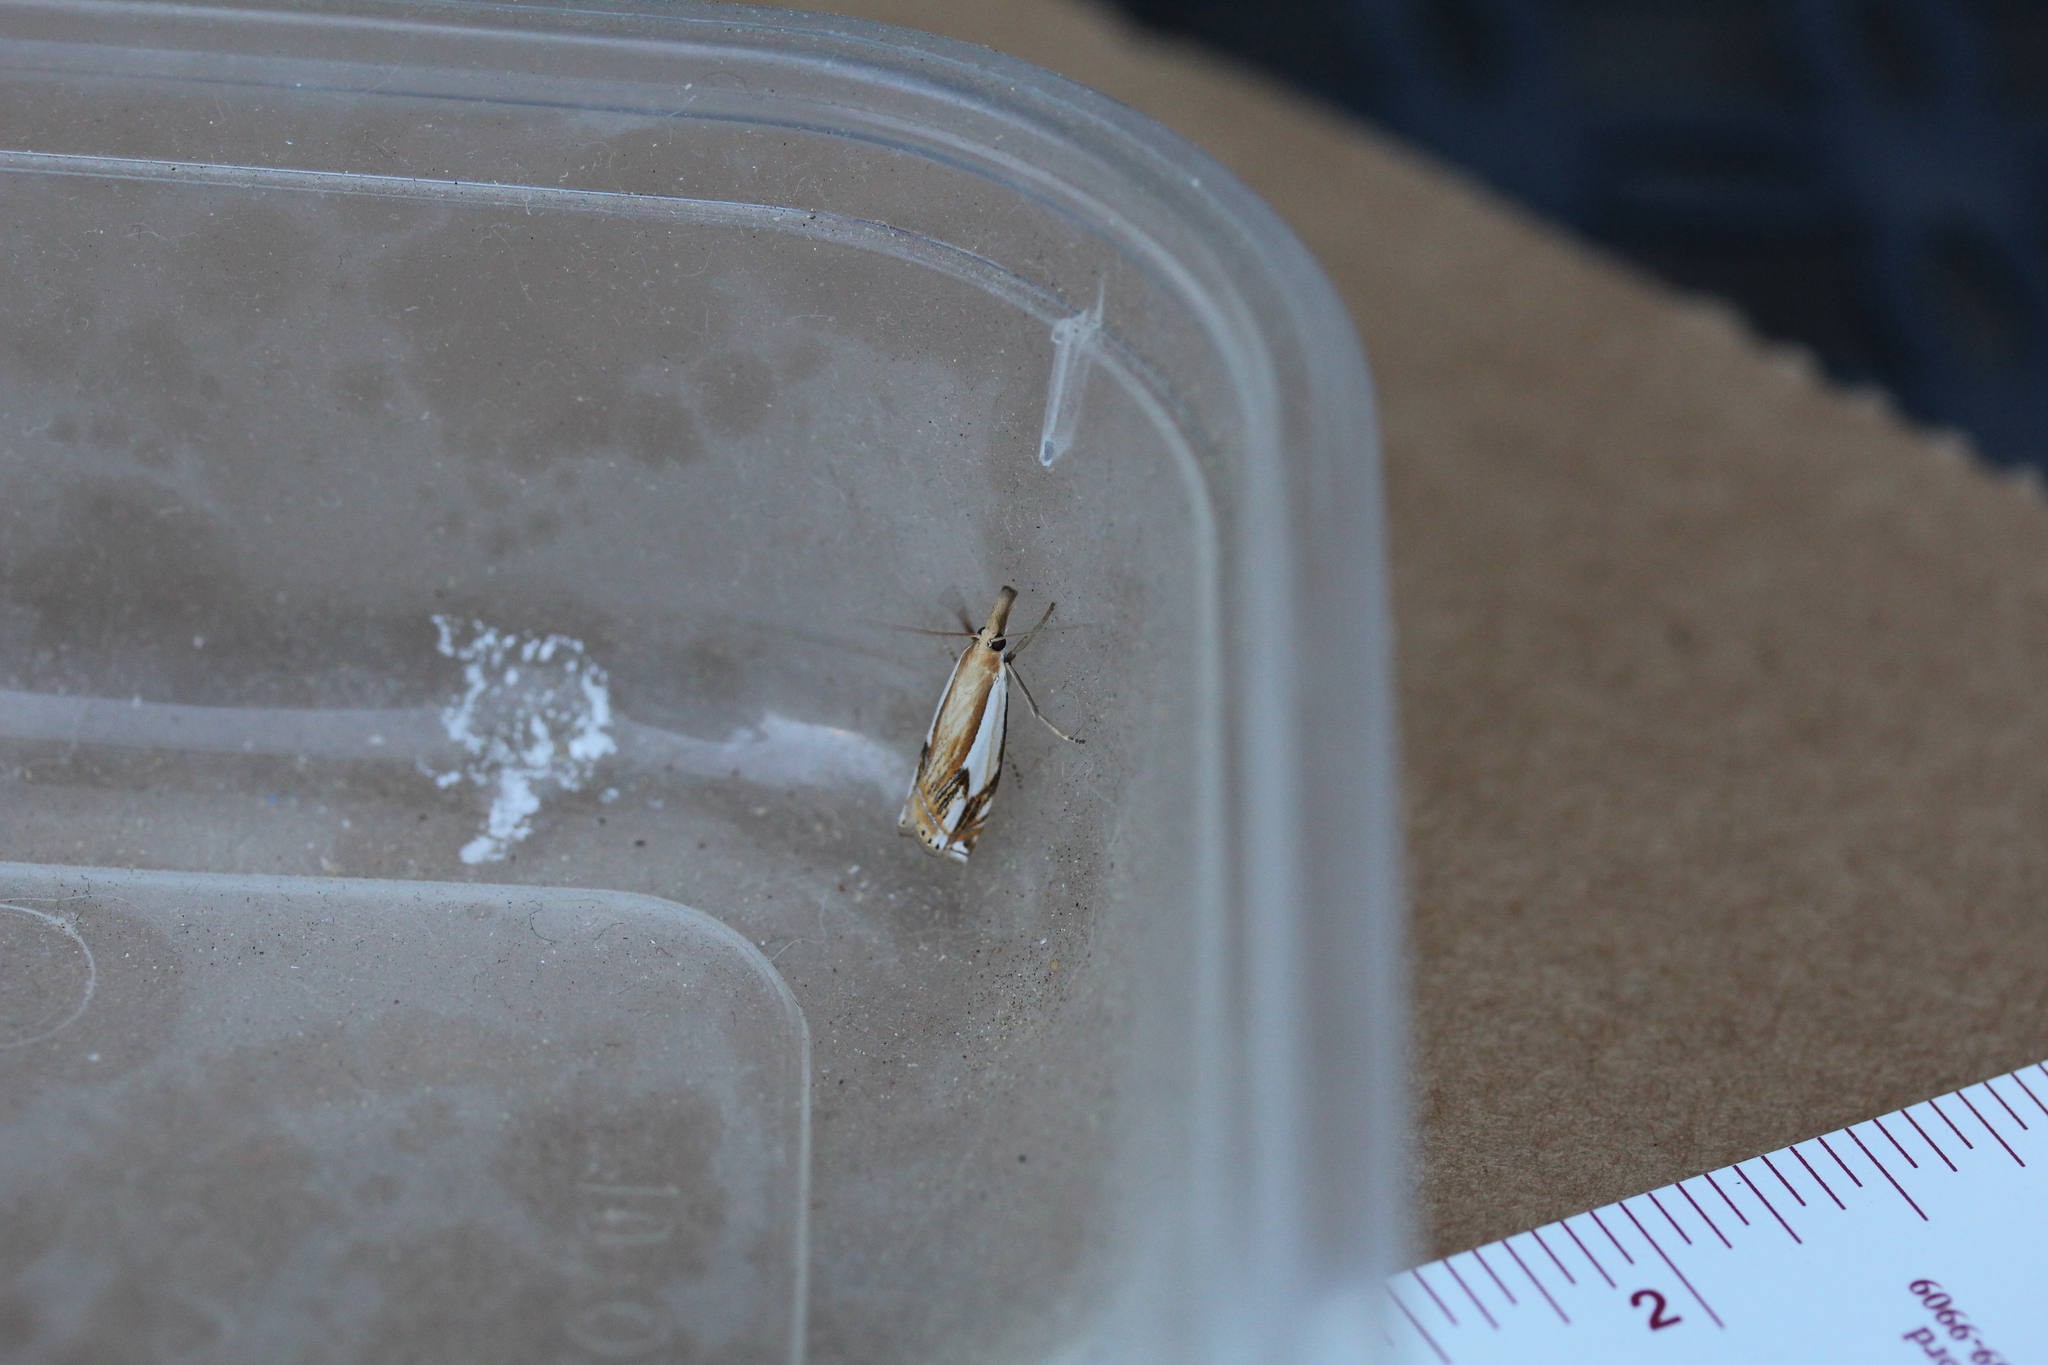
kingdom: Animalia
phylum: Arthropoda
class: Insecta
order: Lepidoptera
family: Crambidae
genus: Crambus
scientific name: Crambus agitatellus
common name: Double-banded grass-veneer
